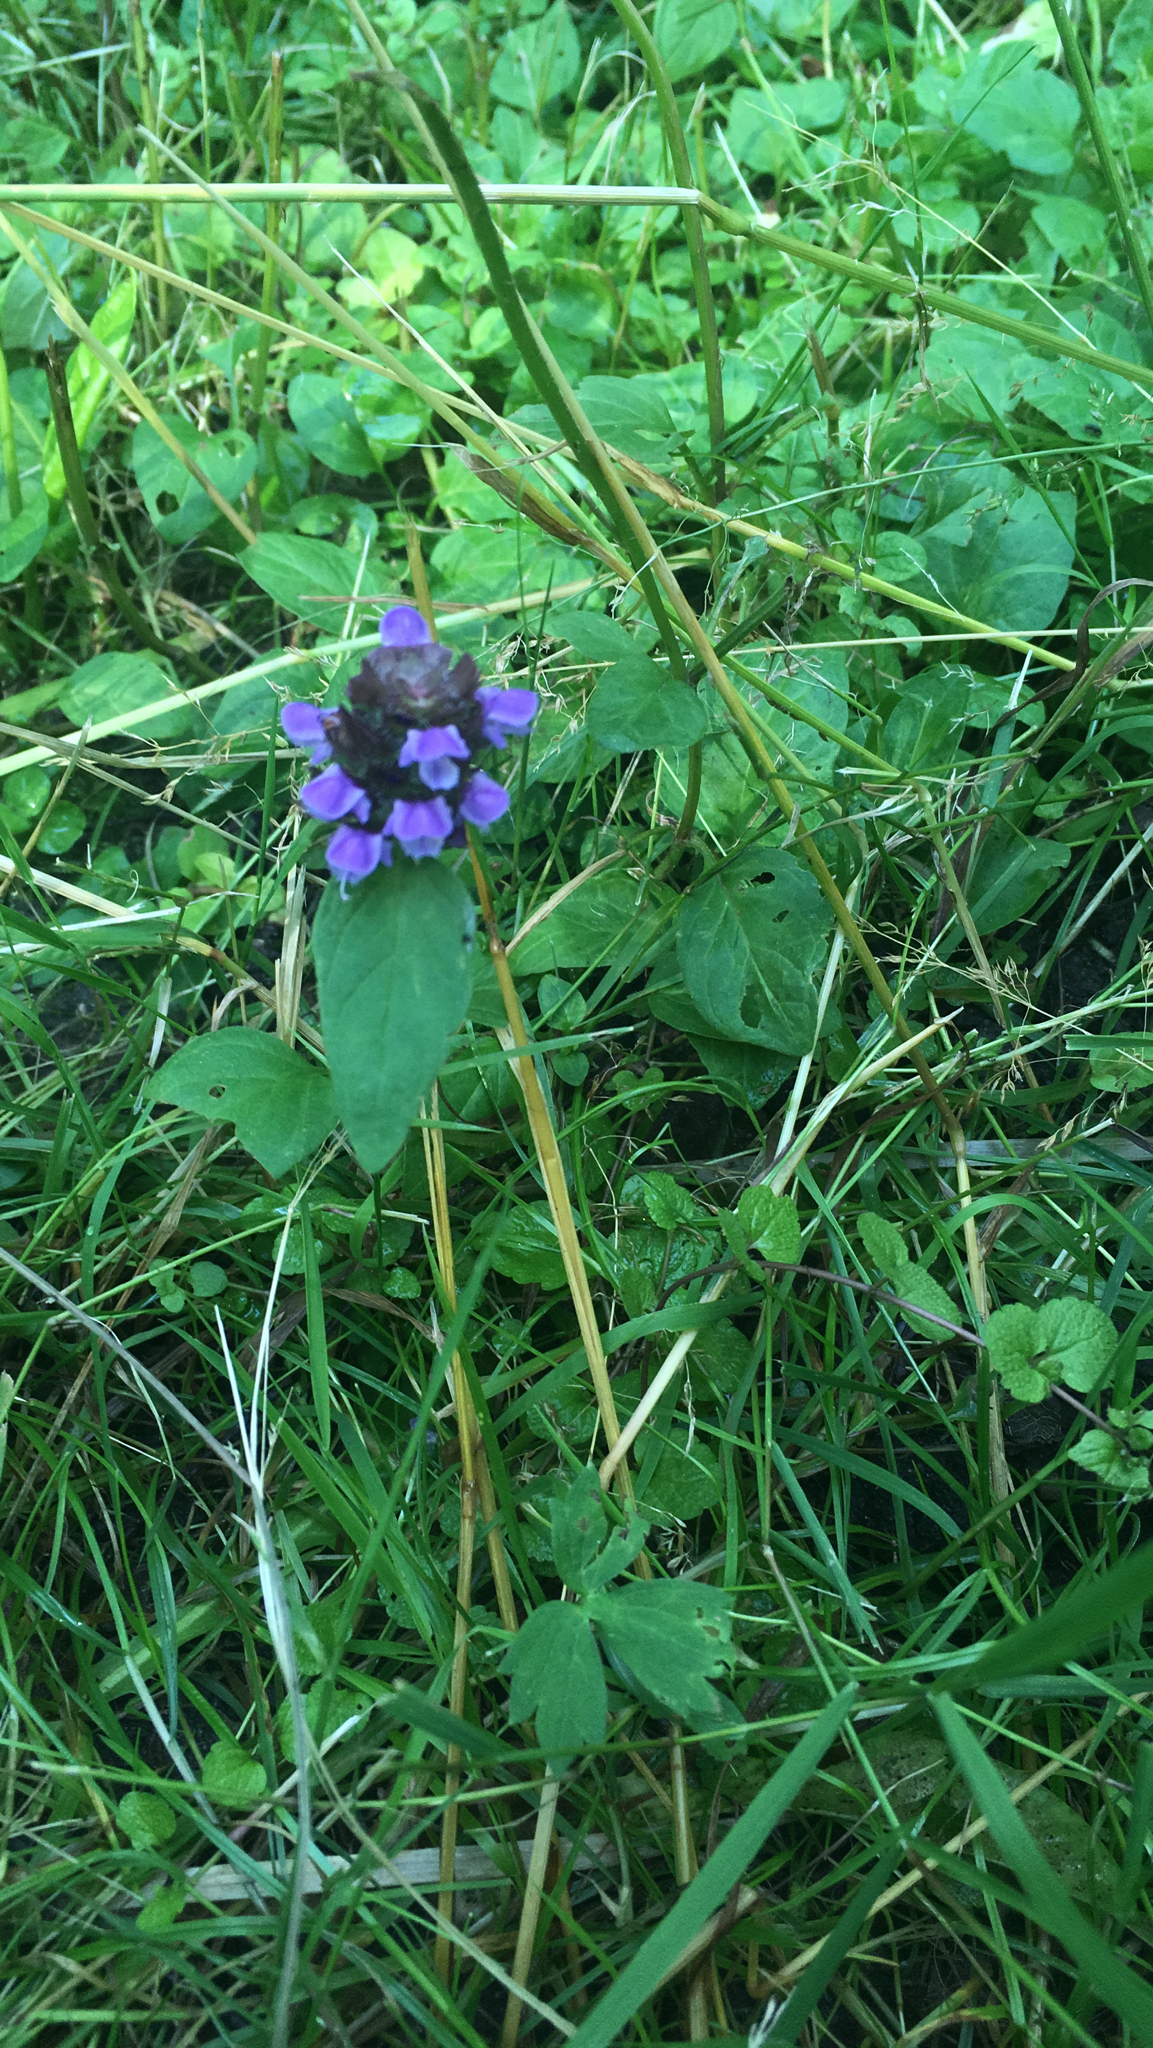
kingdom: Plantae
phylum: Tracheophyta
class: Magnoliopsida
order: Lamiales
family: Lamiaceae
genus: Prunella
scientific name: Prunella vulgaris
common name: Heal-all
